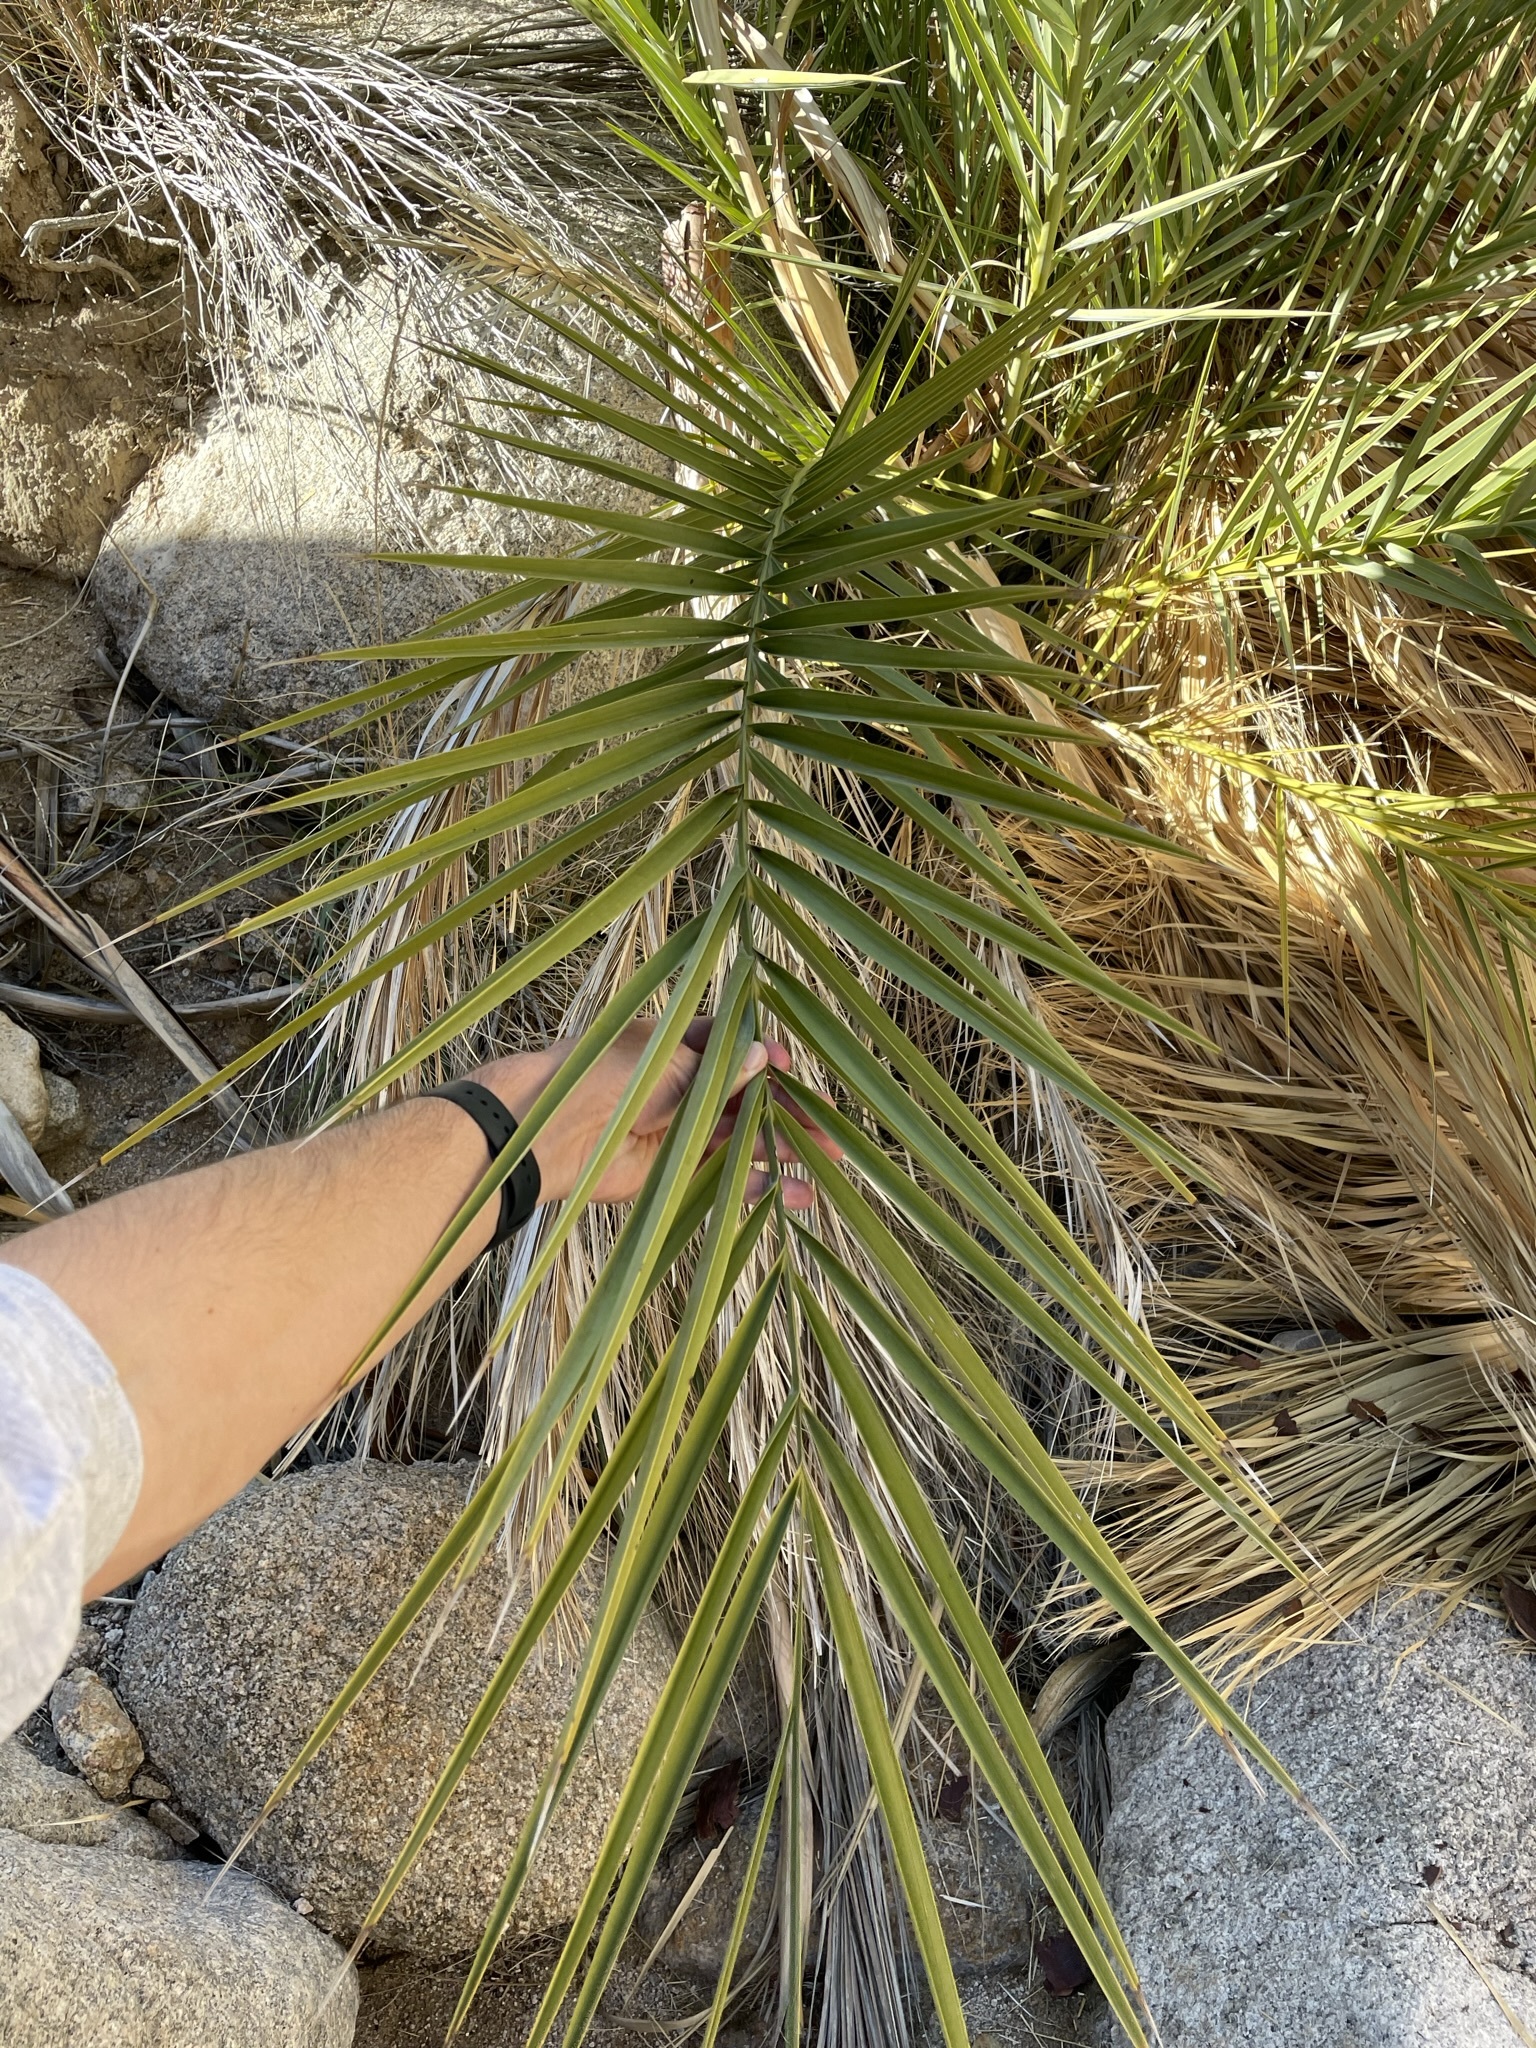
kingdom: Plantae
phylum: Tracheophyta
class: Liliopsida
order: Arecales
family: Arecaceae
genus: Phoenix
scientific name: Phoenix dactylifera
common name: Date palm
